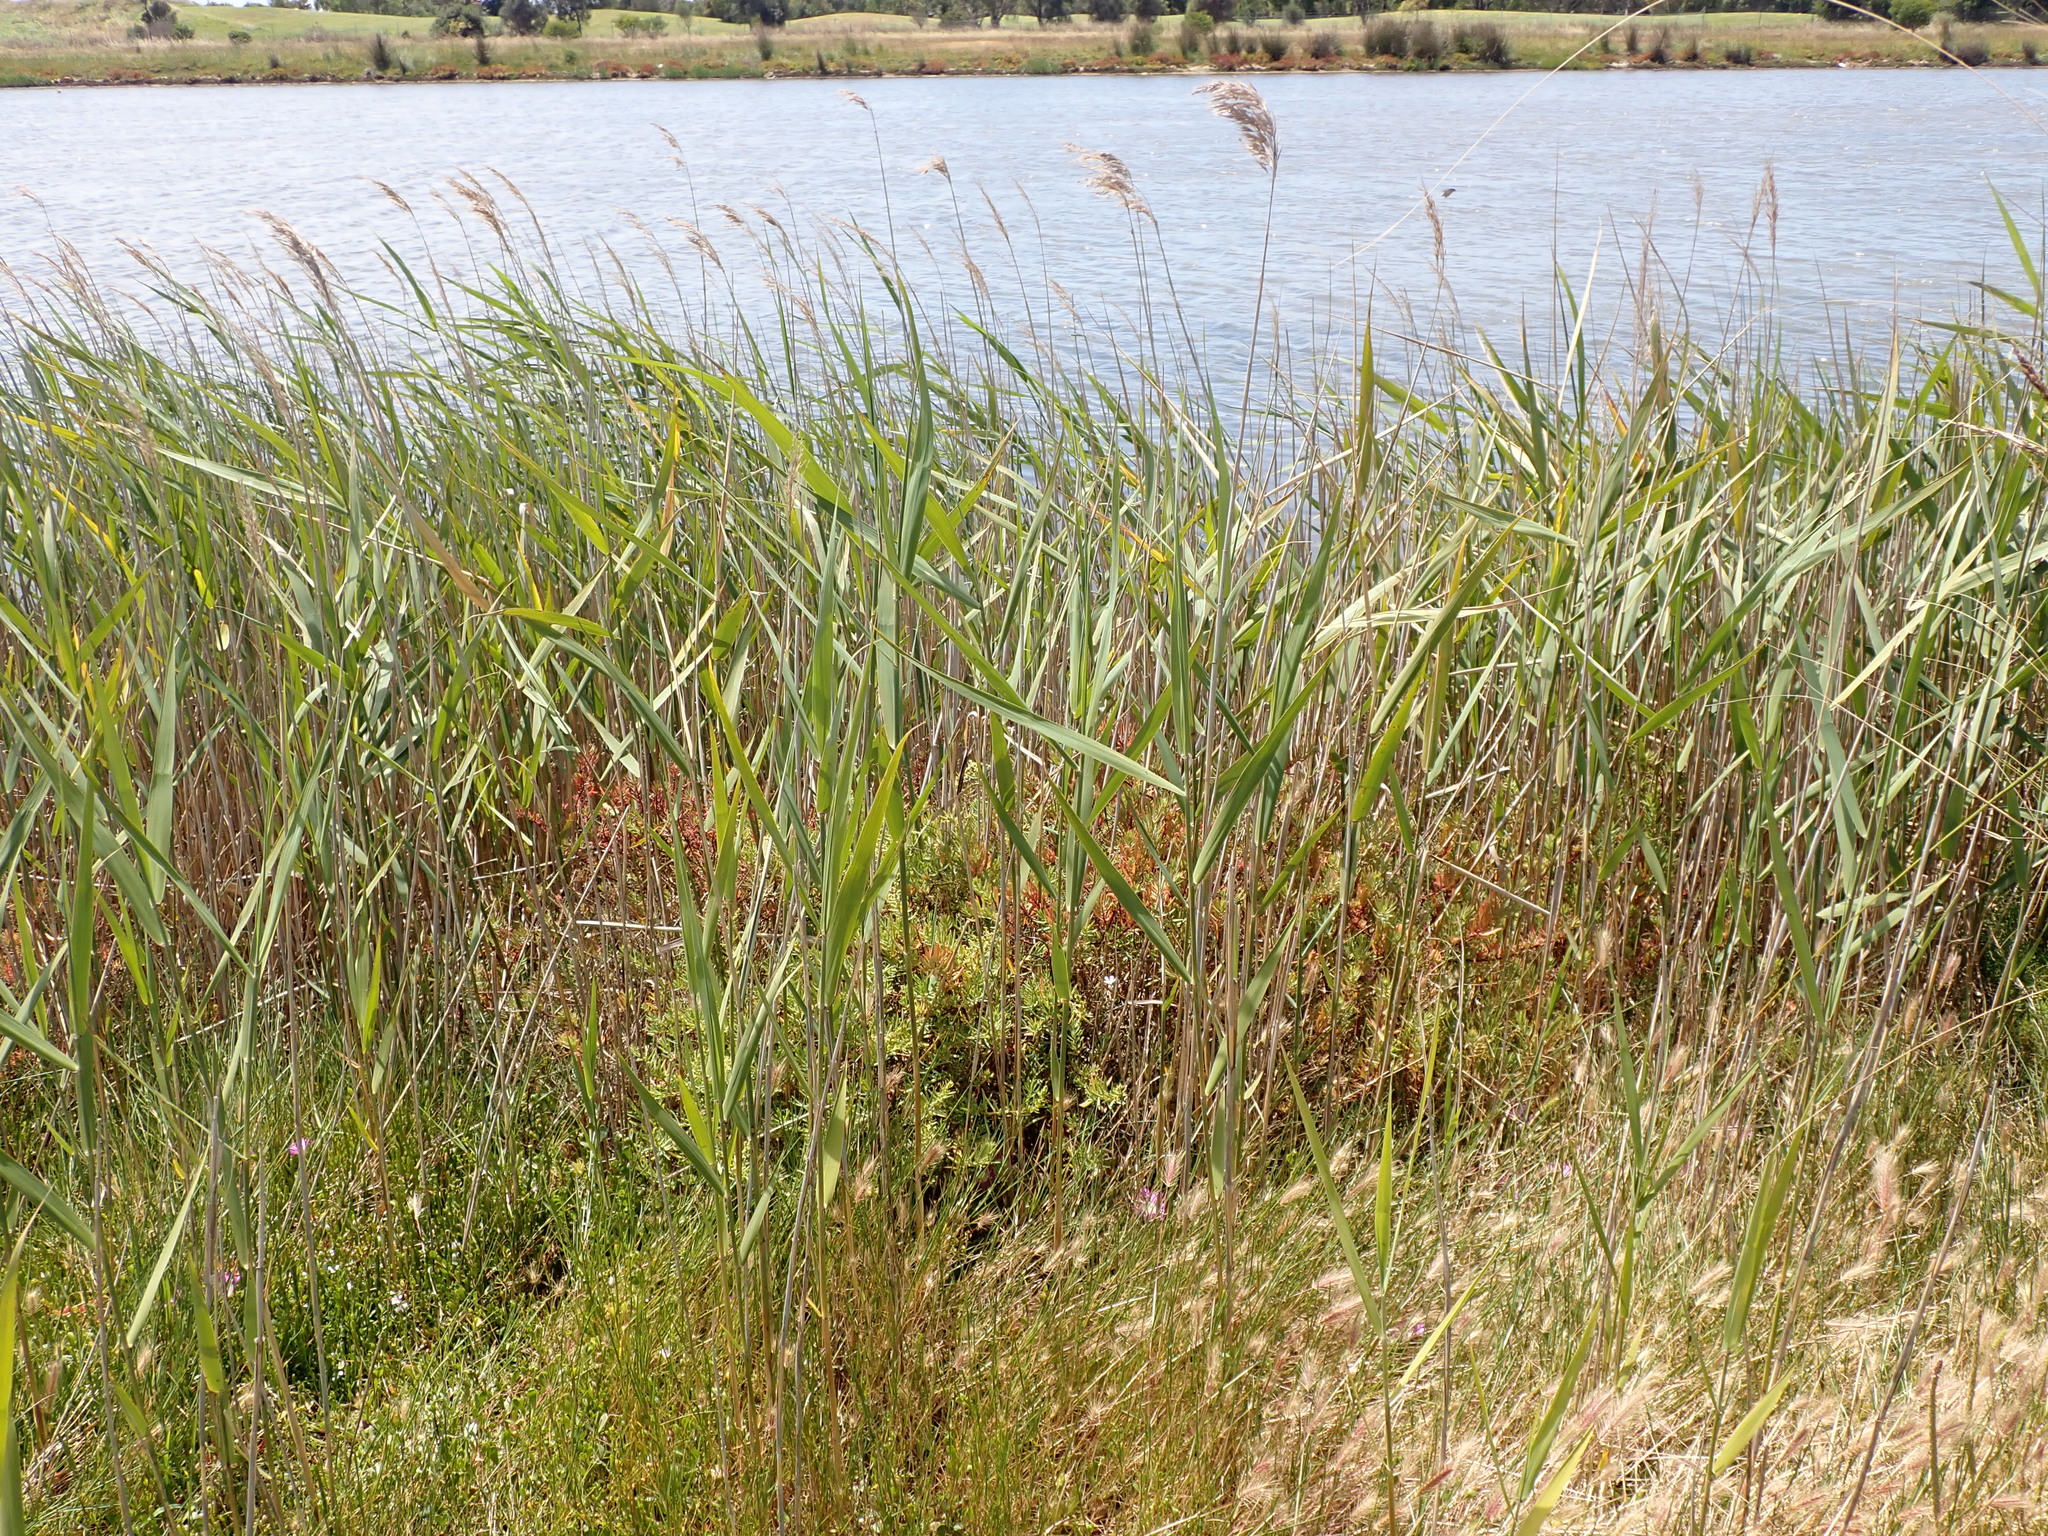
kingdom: Plantae
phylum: Tracheophyta
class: Liliopsida
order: Poales
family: Poaceae
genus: Phragmites
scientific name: Phragmites australis
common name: Common reed
